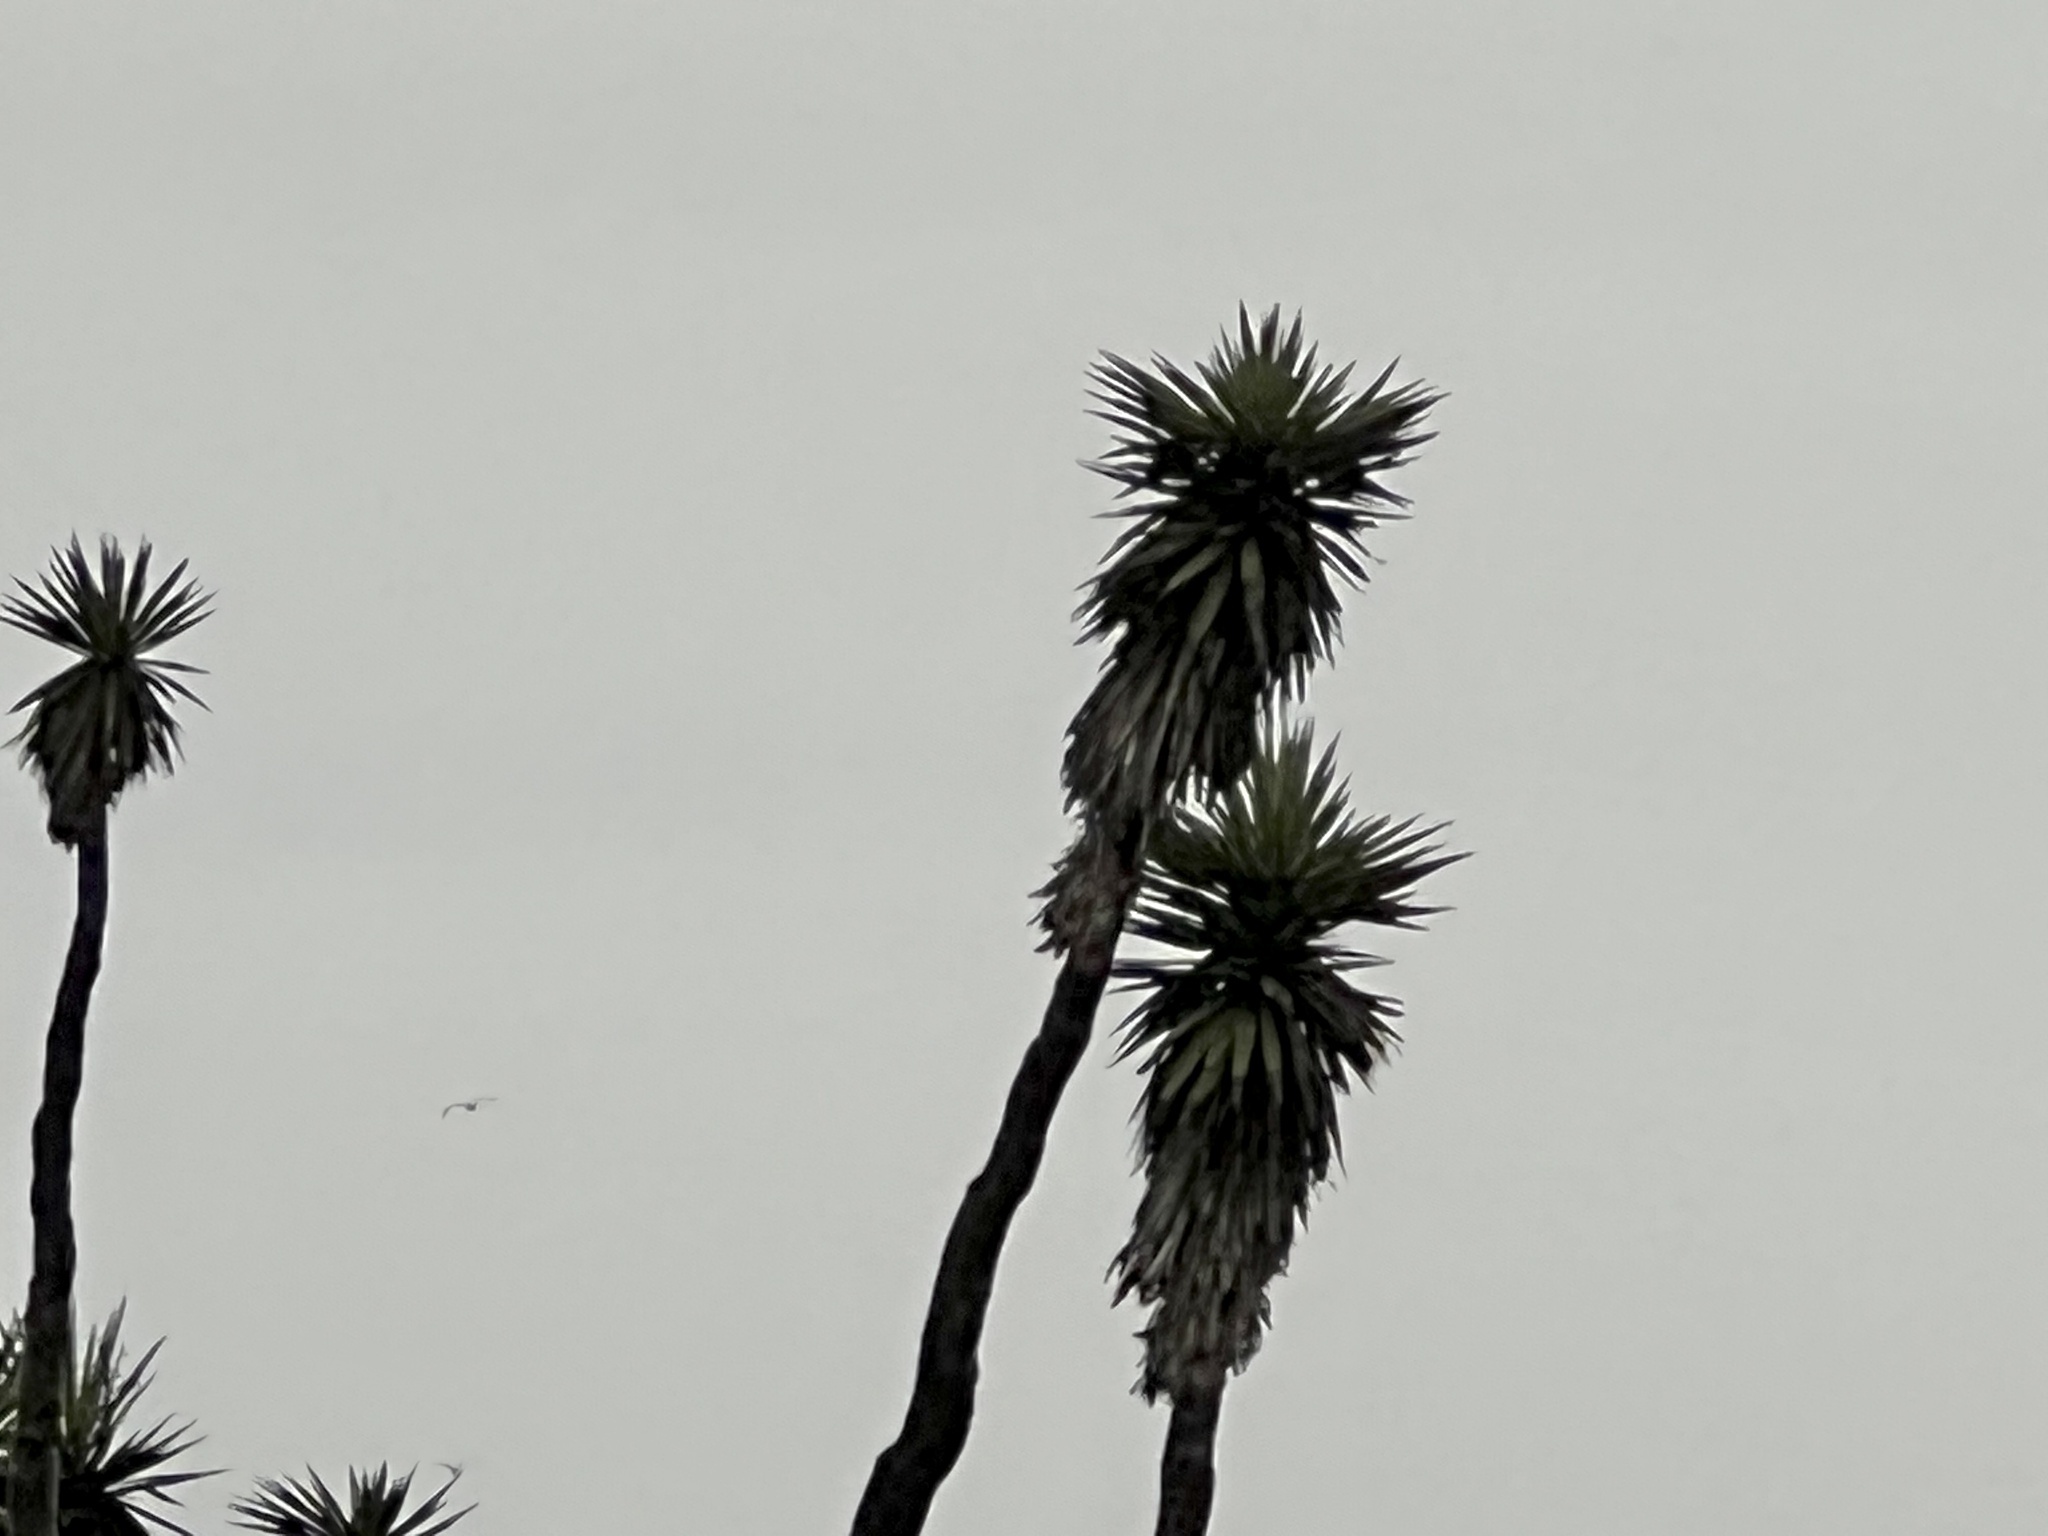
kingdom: Plantae
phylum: Tracheophyta
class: Liliopsida
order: Asparagales
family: Asparagaceae
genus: Yucca
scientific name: Yucca treculiana
